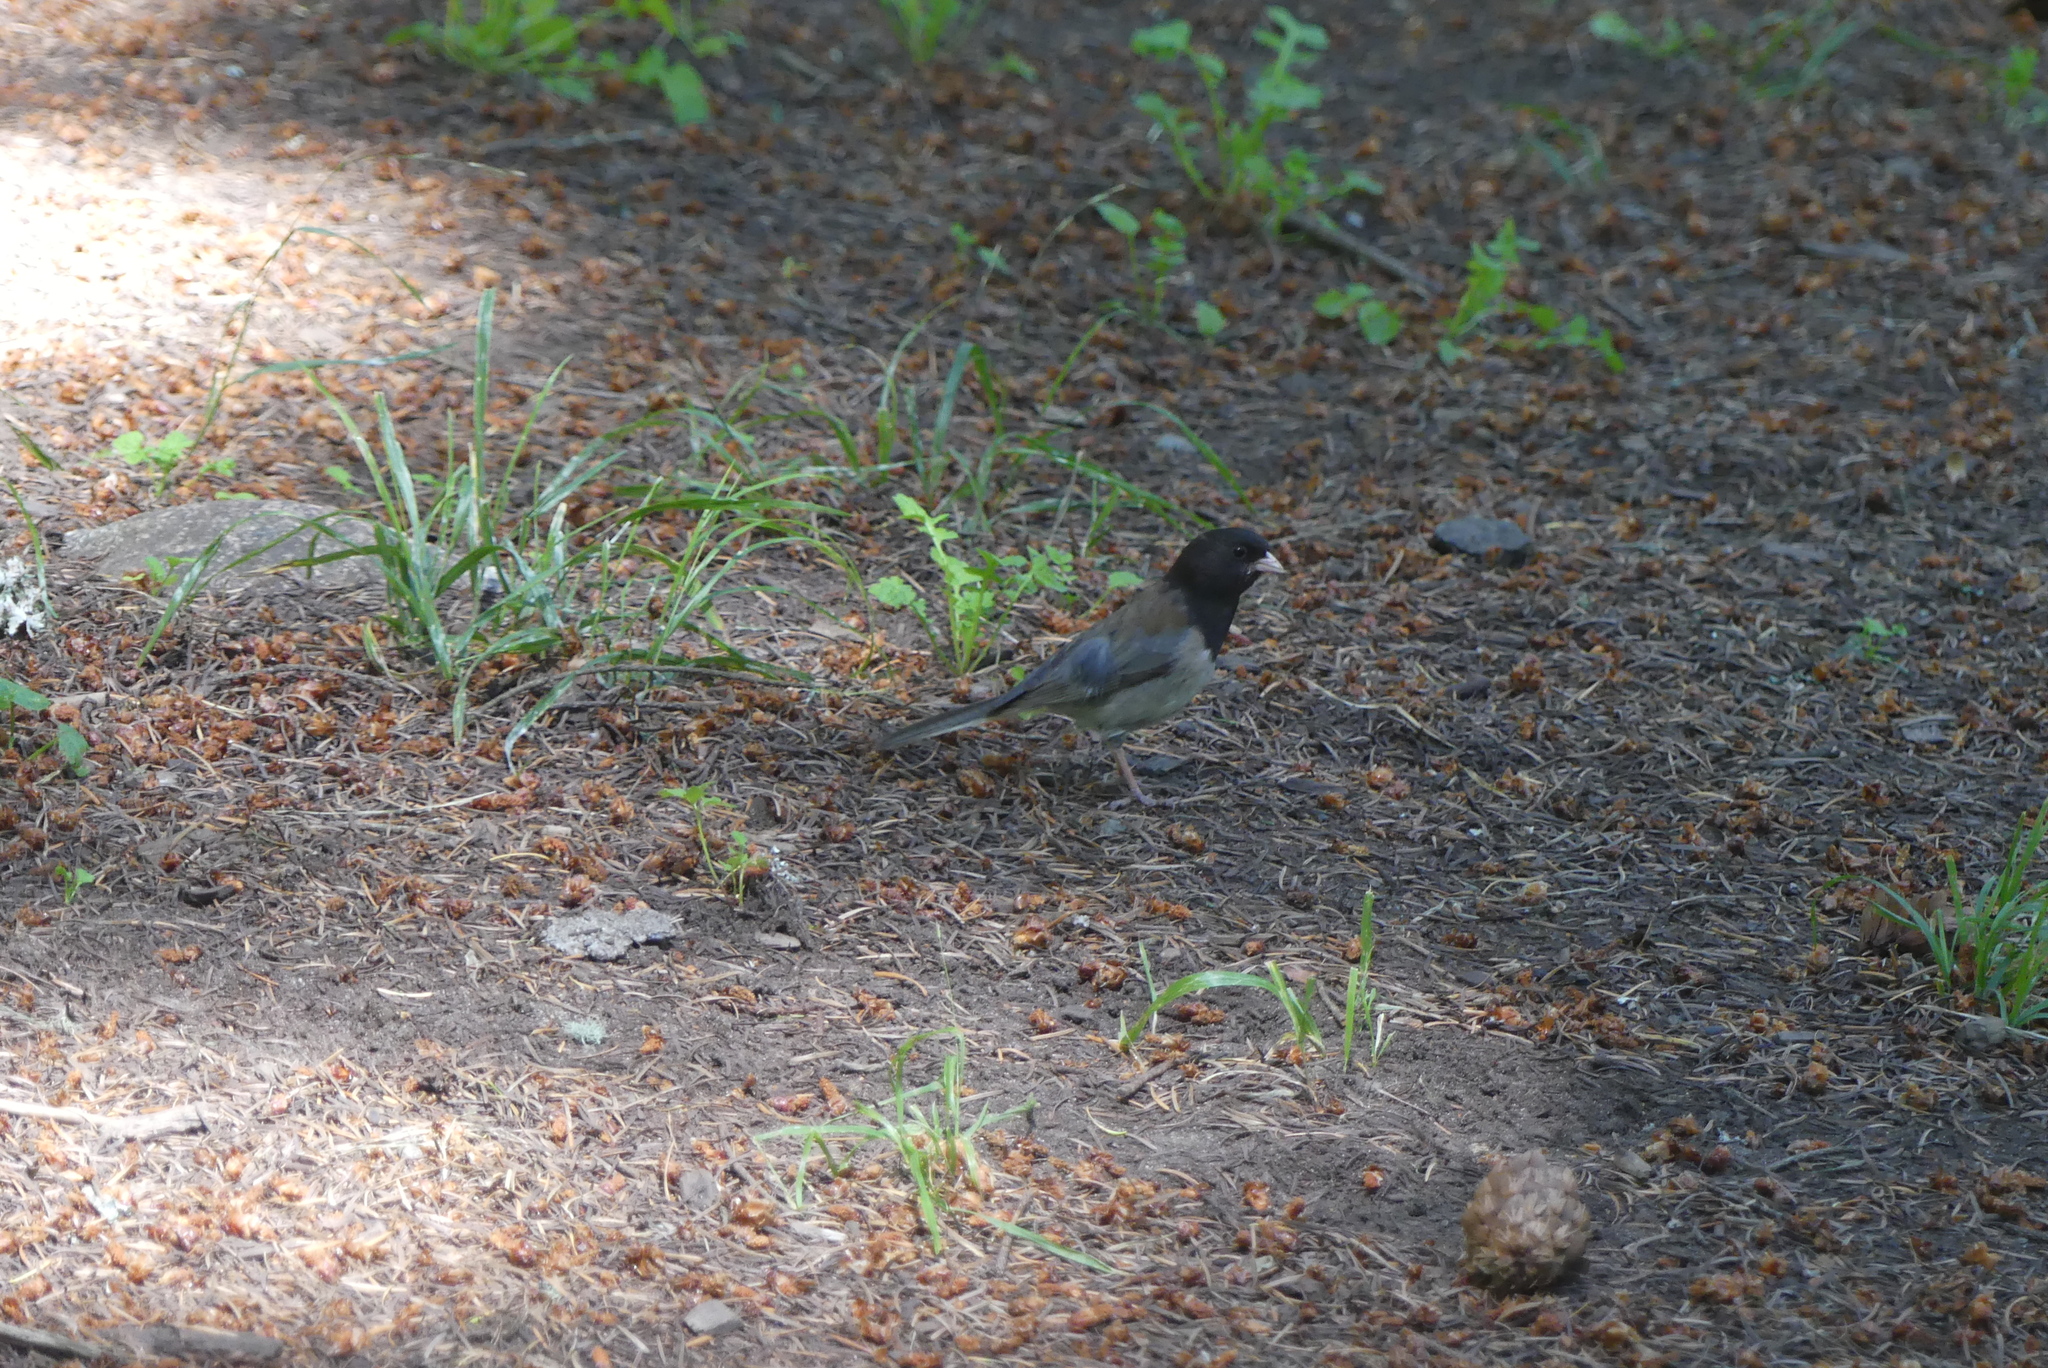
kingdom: Animalia
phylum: Chordata
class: Aves
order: Passeriformes
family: Passerellidae
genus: Junco
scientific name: Junco hyemalis
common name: Dark-eyed junco
